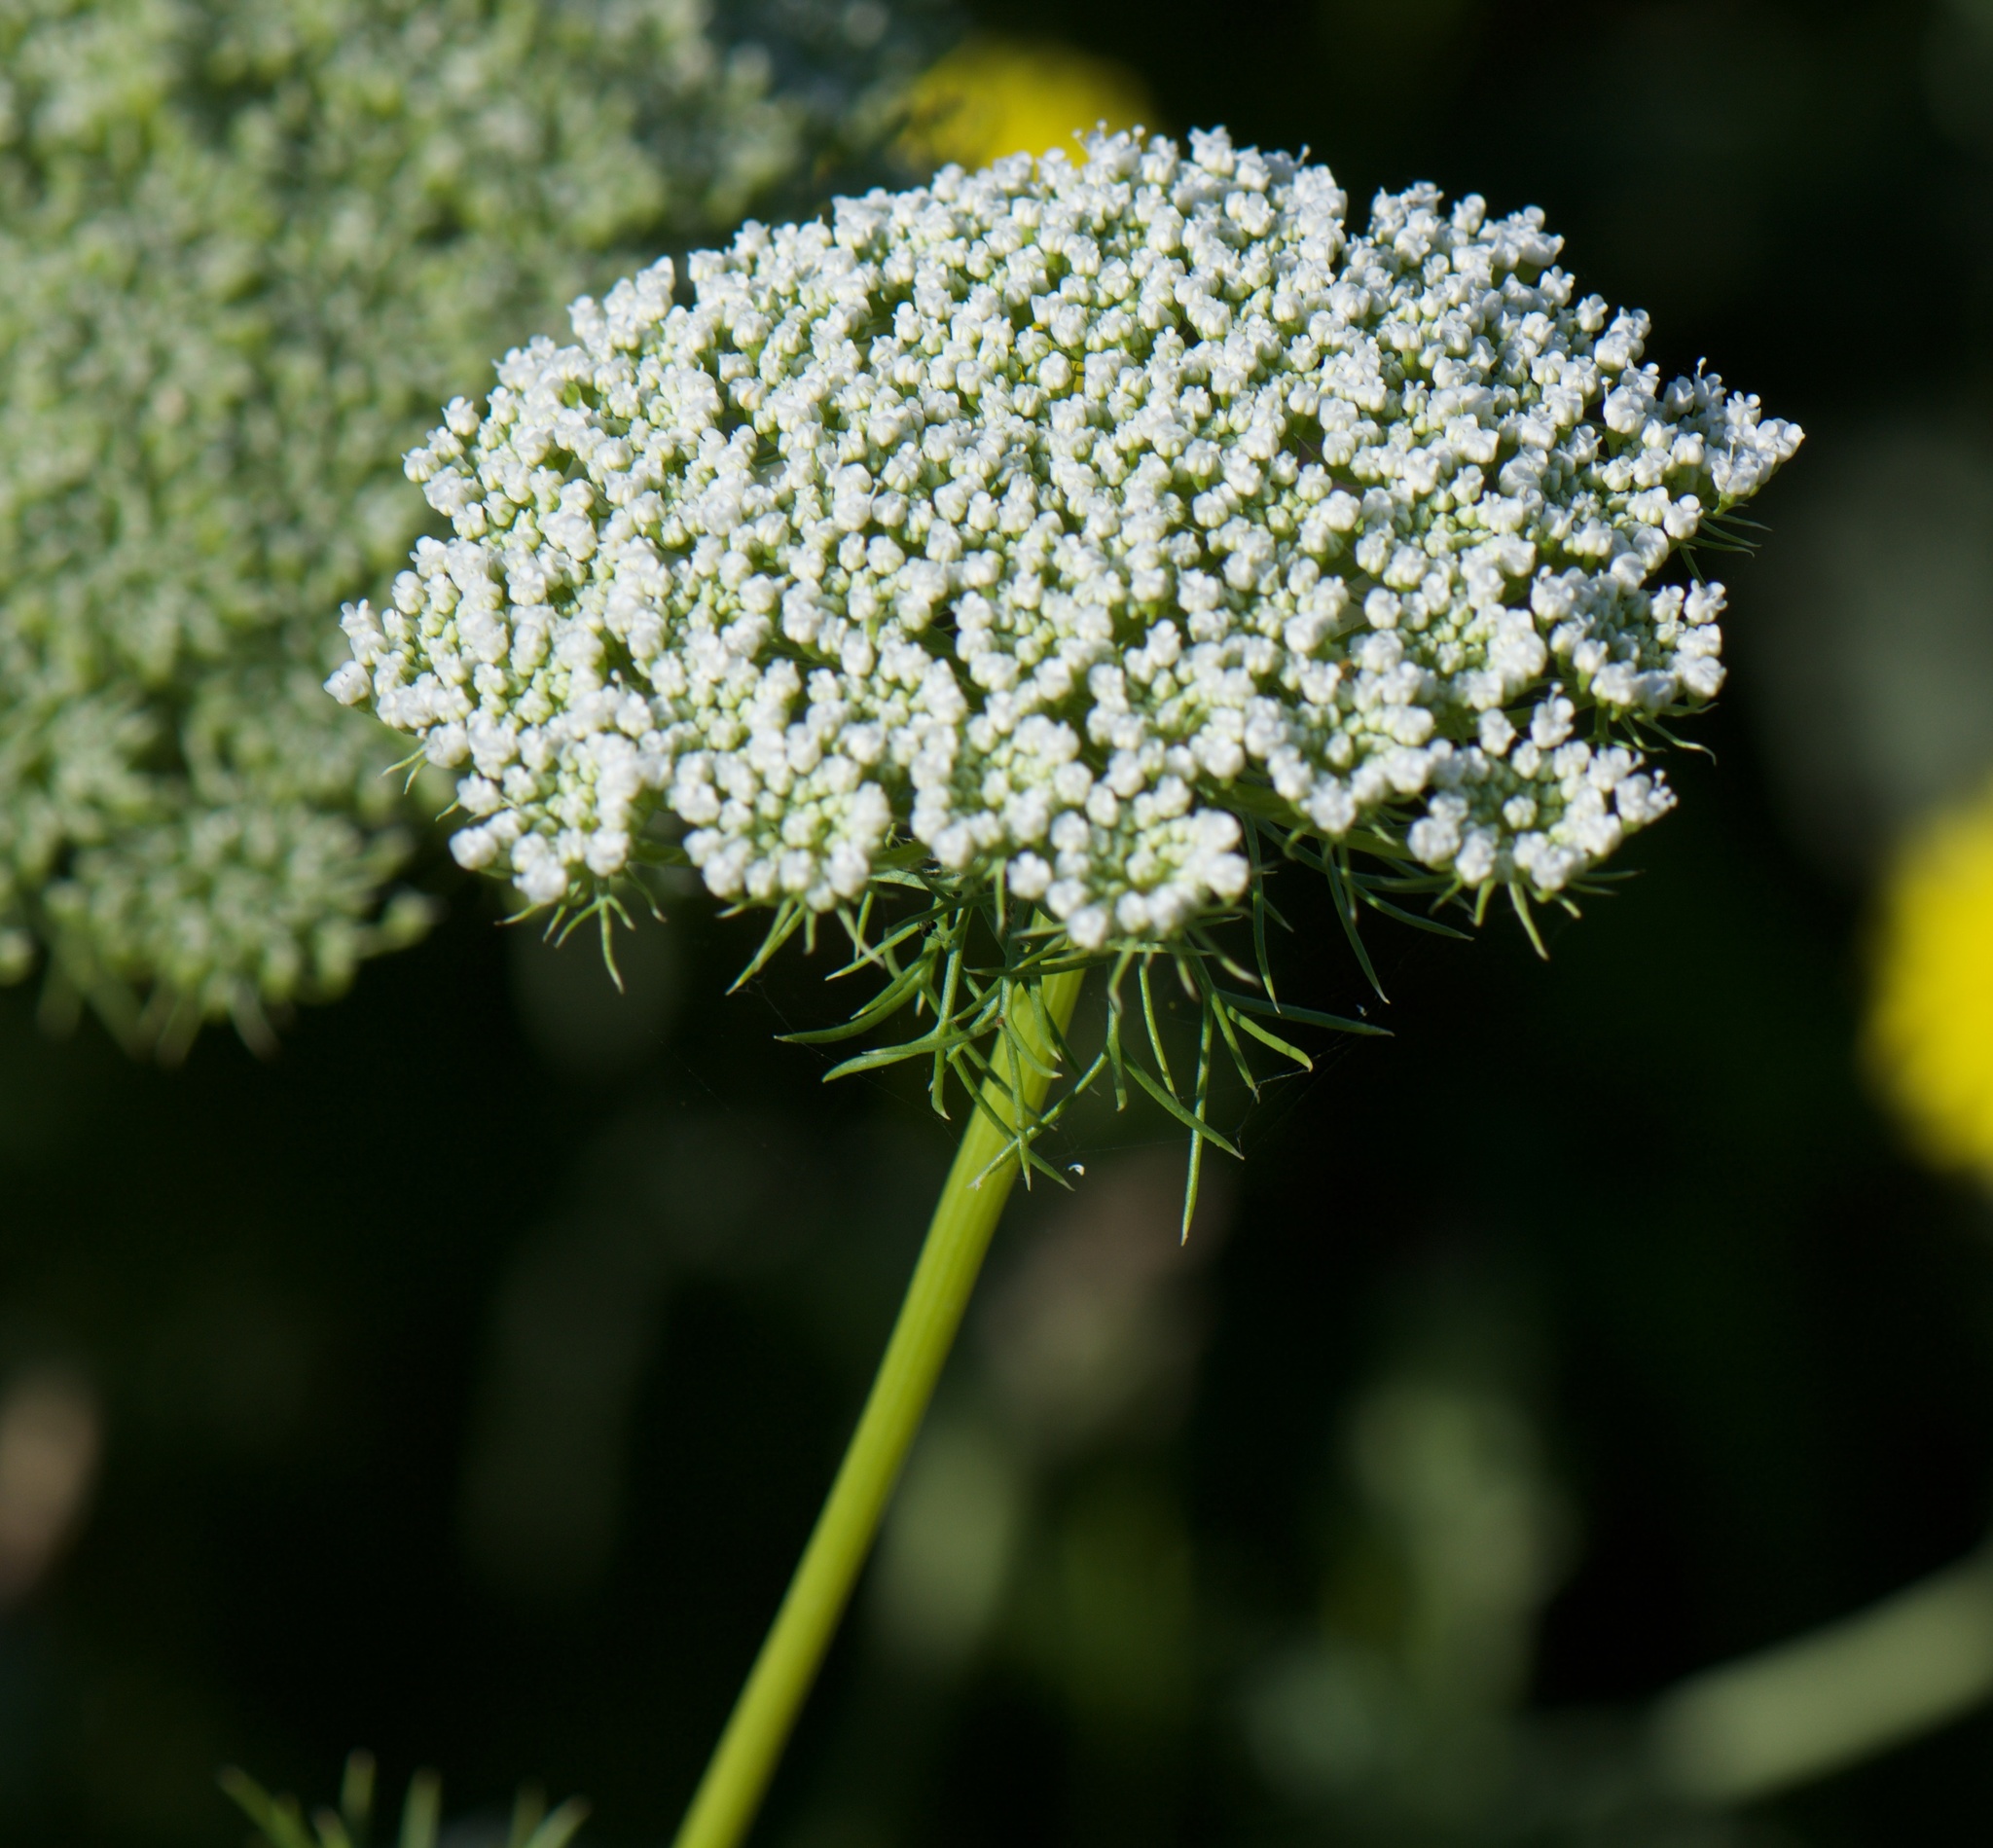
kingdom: Plantae
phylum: Tracheophyta
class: Magnoliopsida
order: Apiales
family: Apiaceae
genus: Visnaga
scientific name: Visnaga daucoides
